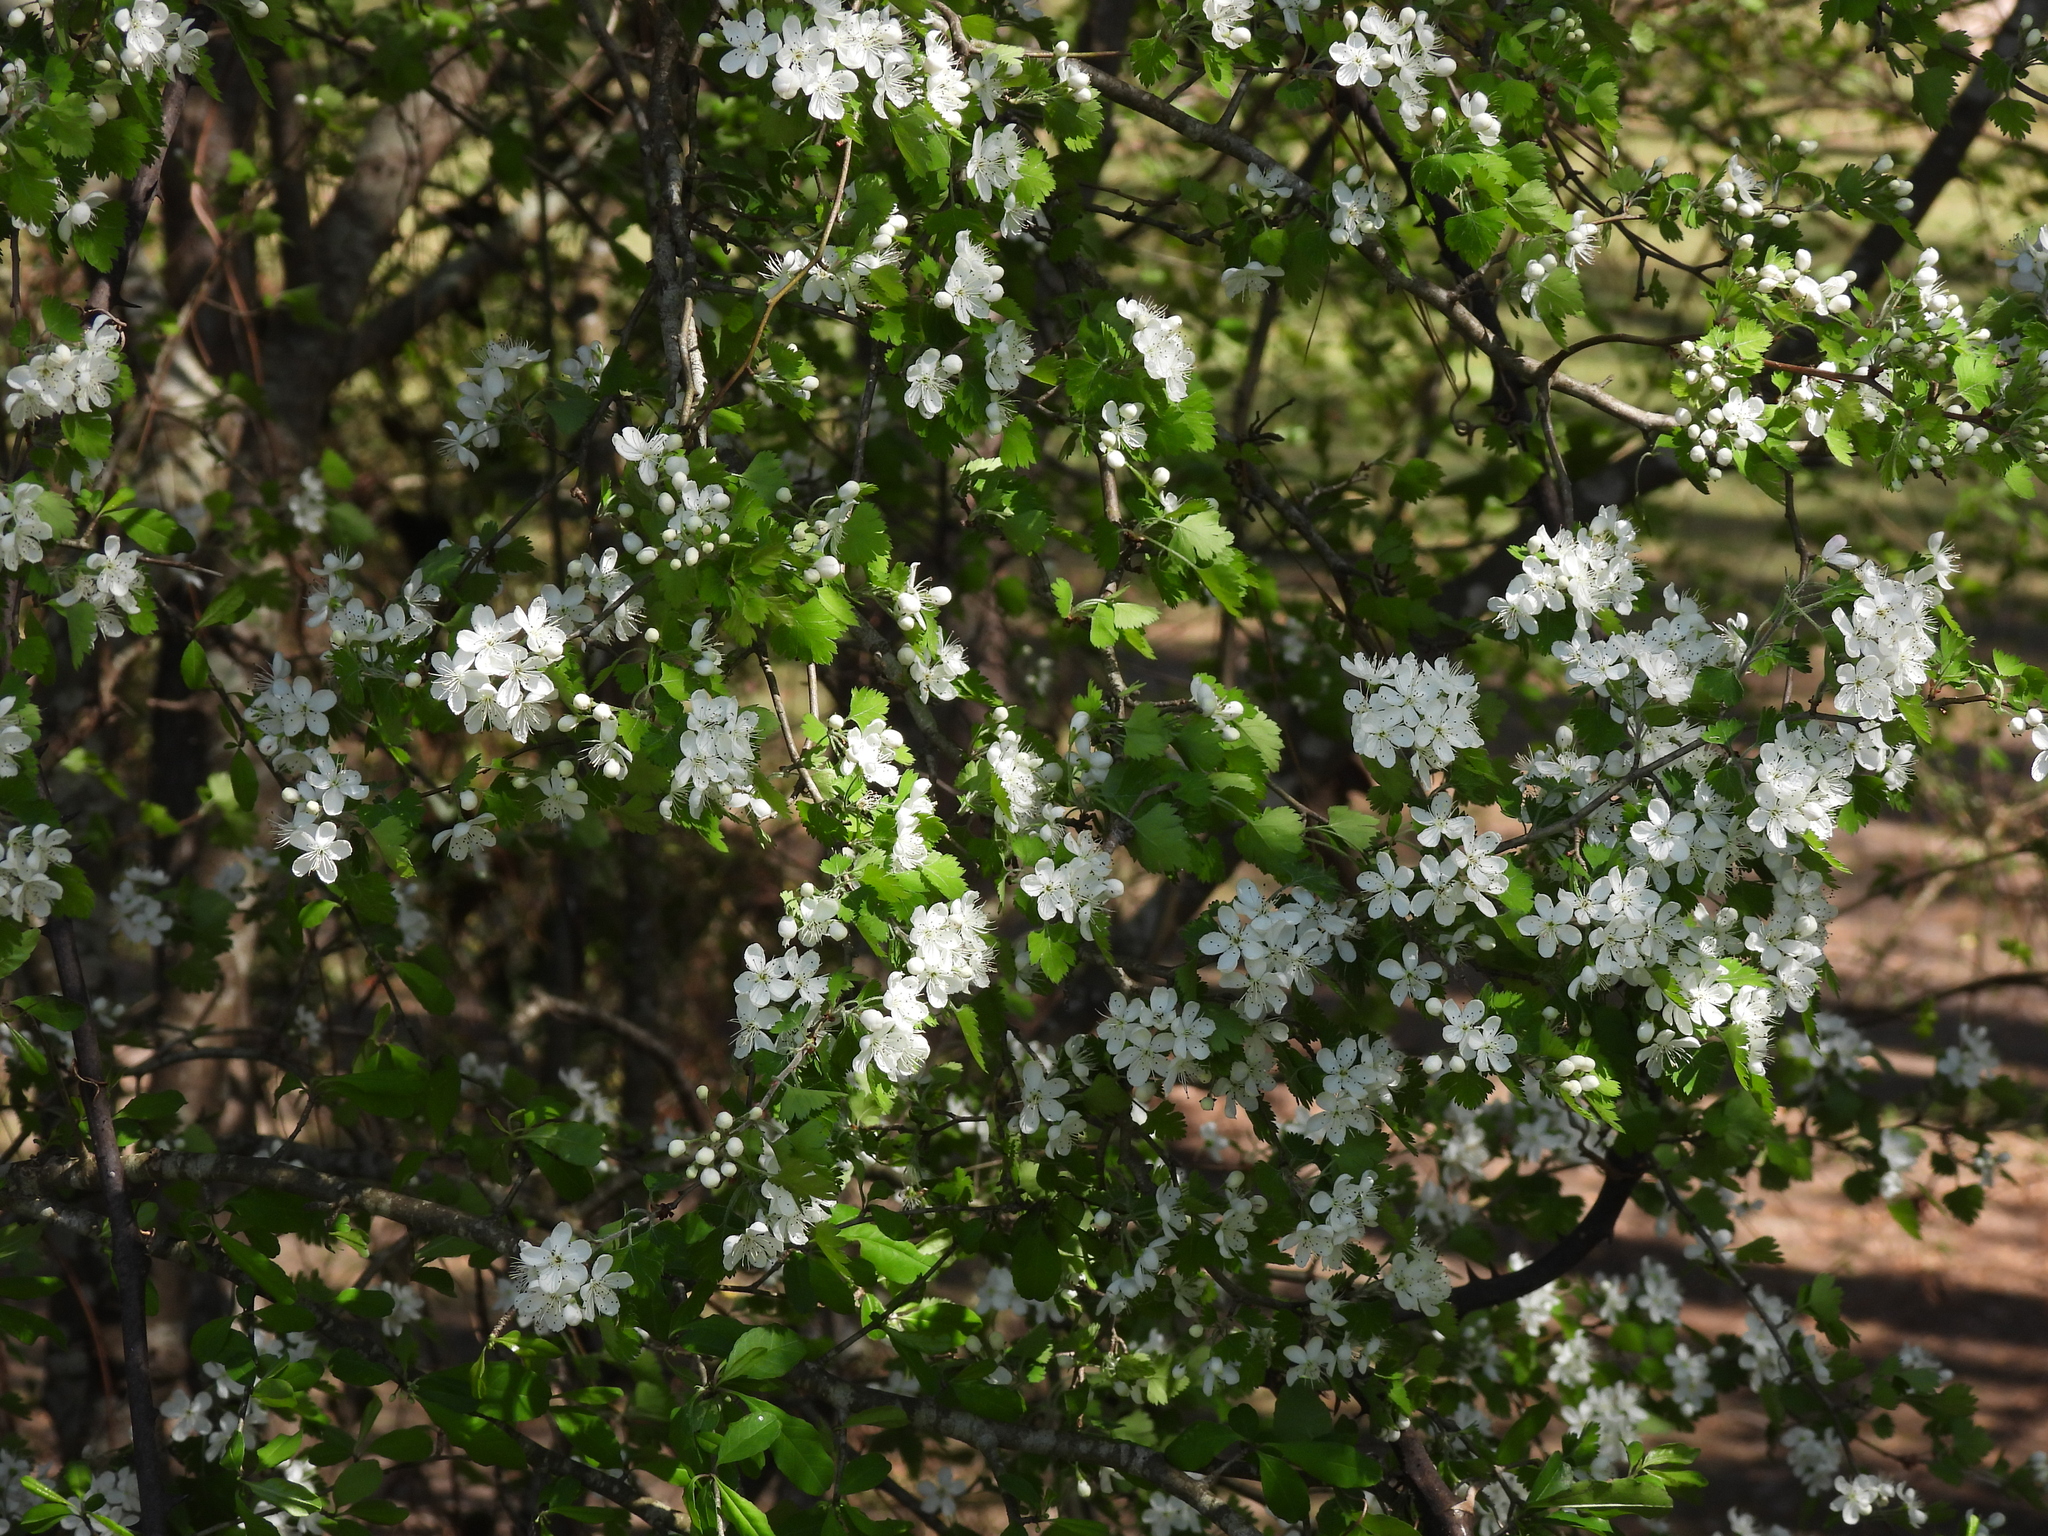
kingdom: Plantae
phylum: Tracheophyta
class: Magnoliopsida
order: Rosales
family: Rosaceae
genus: Crataegus
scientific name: Crataegus marshallii
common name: Parsley-hawthorn
